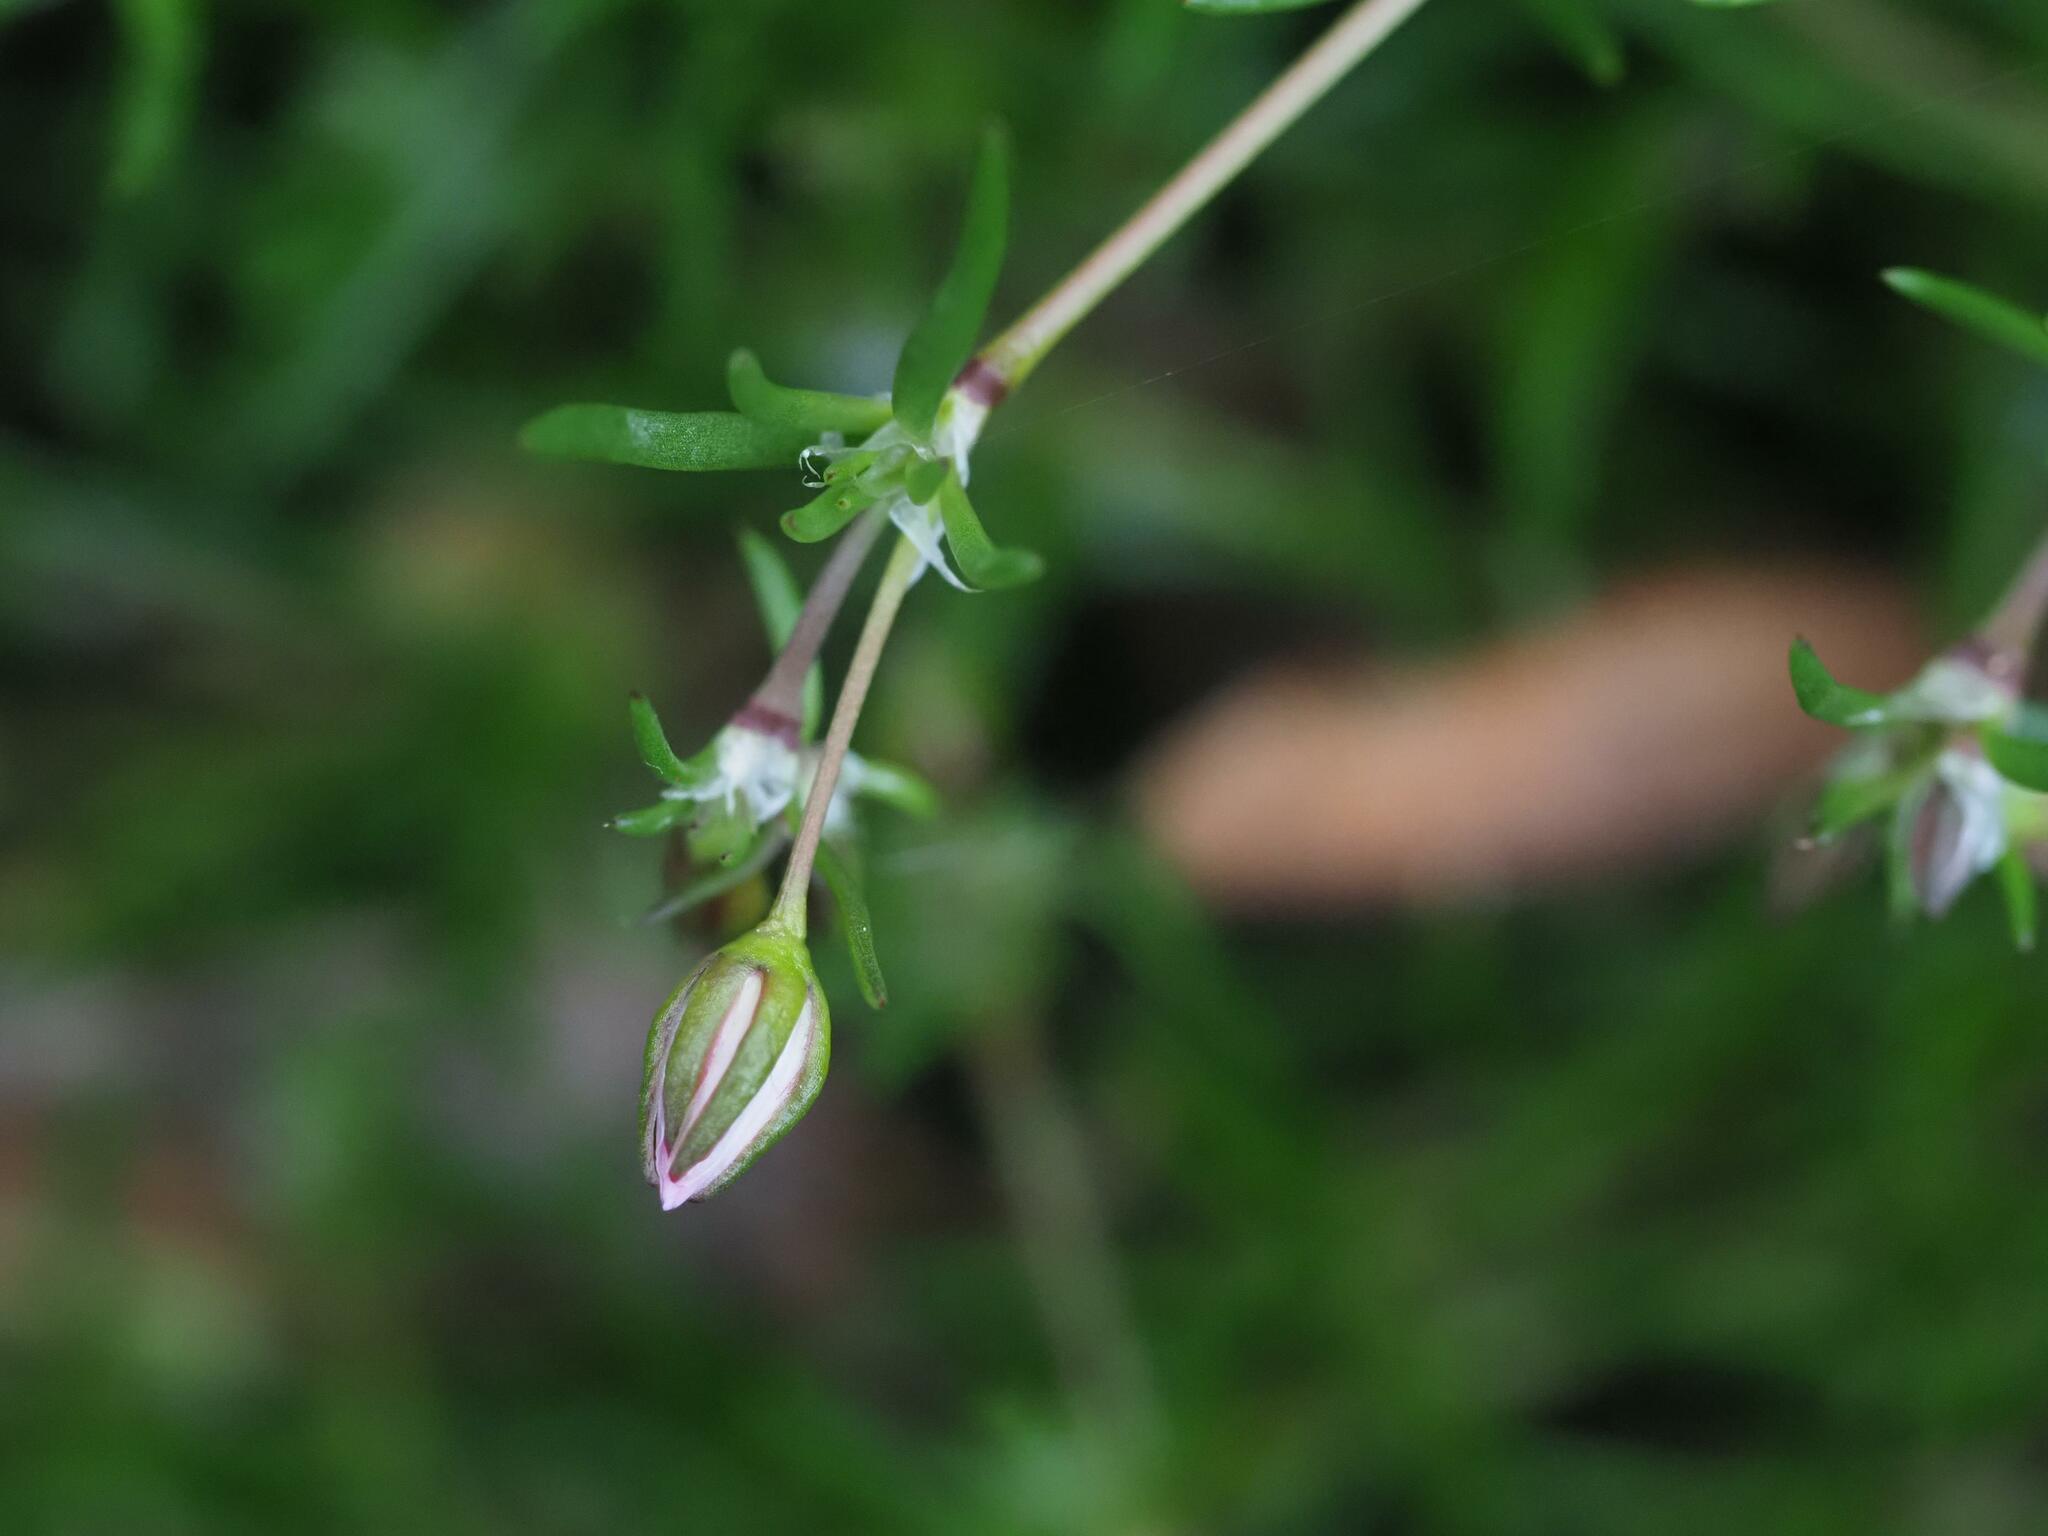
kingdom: Plantae
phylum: Tracheophyta
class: Magnoliopsida
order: Caryophyllales
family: Caryophyllaceae
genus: Spergularia
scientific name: Spergularia rubra
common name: Red sand-spurrey
